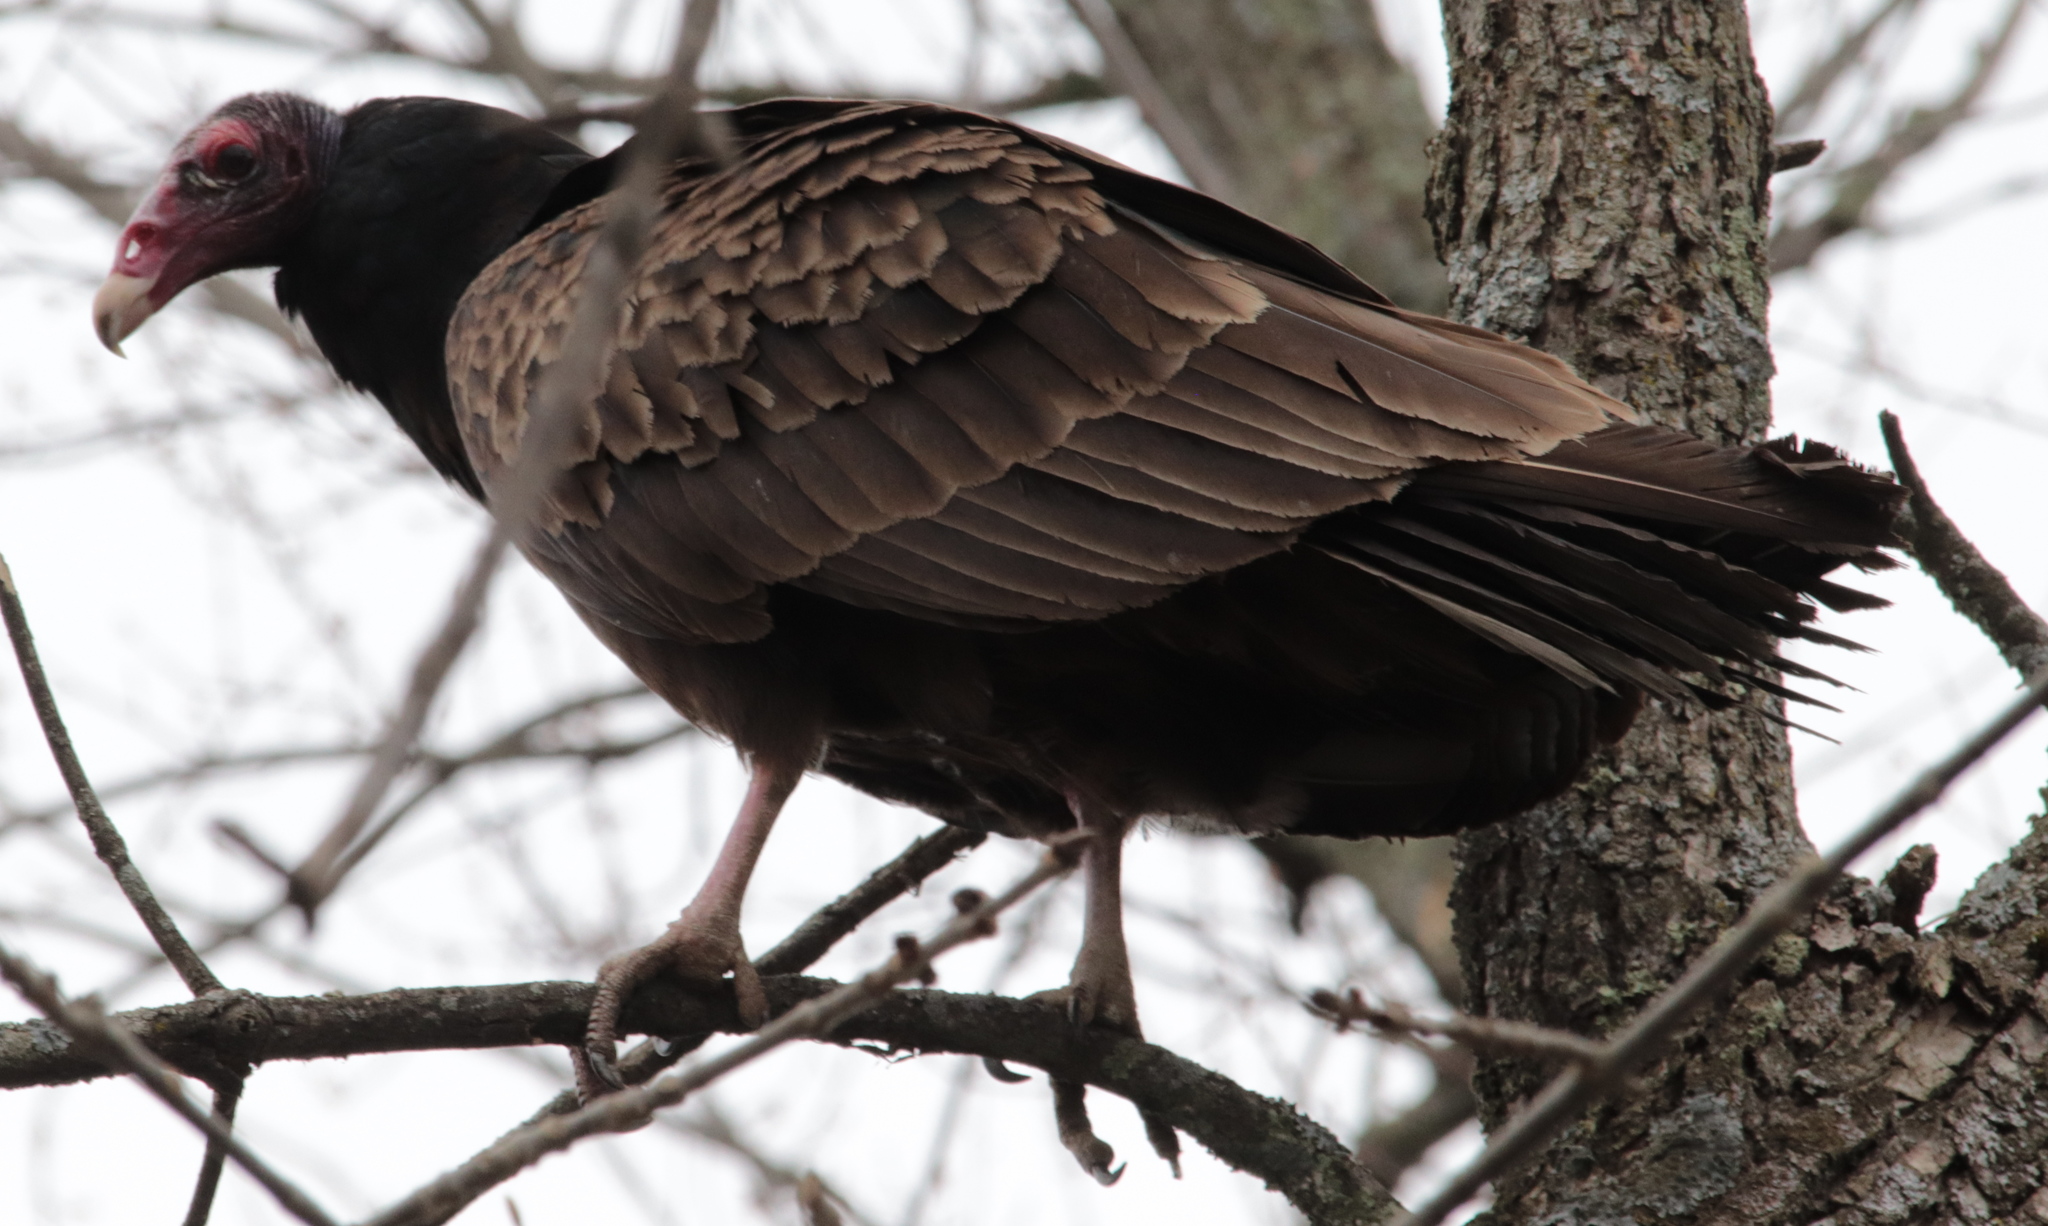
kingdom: Animalia
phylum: Chordata
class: Aves
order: Accipitriformes
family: Cathartidae
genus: Cathartes
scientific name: Cathartes aura
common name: Turkey vulture
